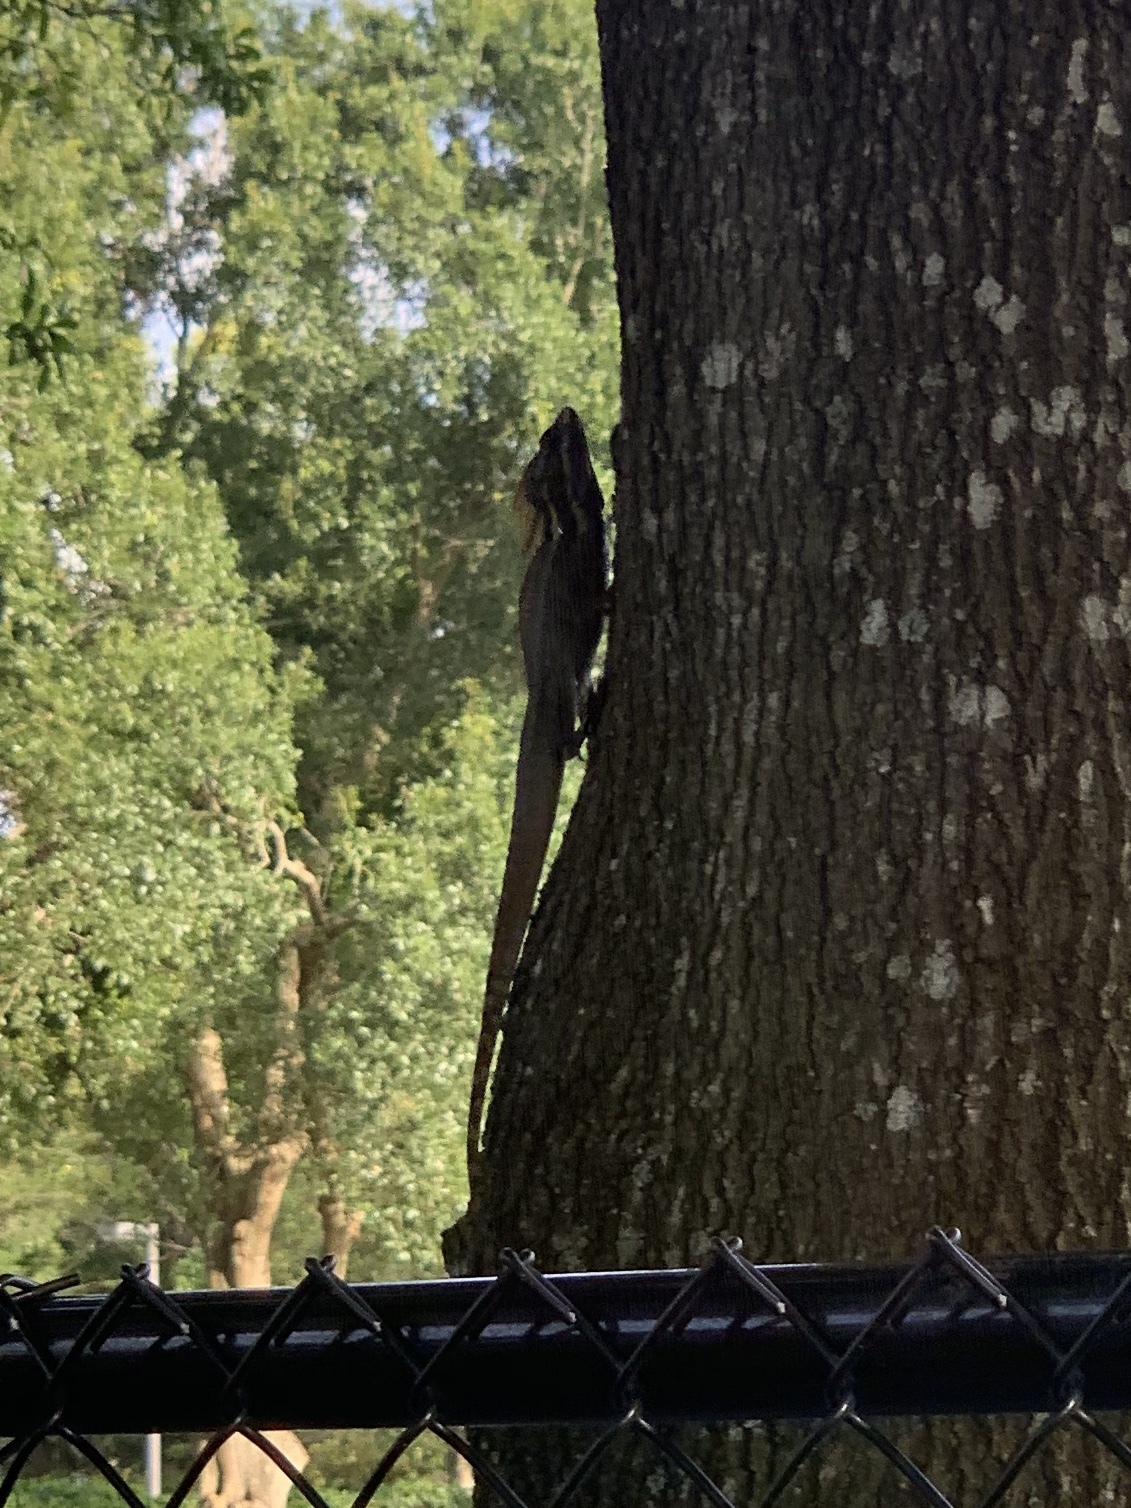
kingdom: Animalia
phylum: Chordata
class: Squamata
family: Corytophanidae
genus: Basiliscus
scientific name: Basiliscus vittatus
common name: Brown basilisk
